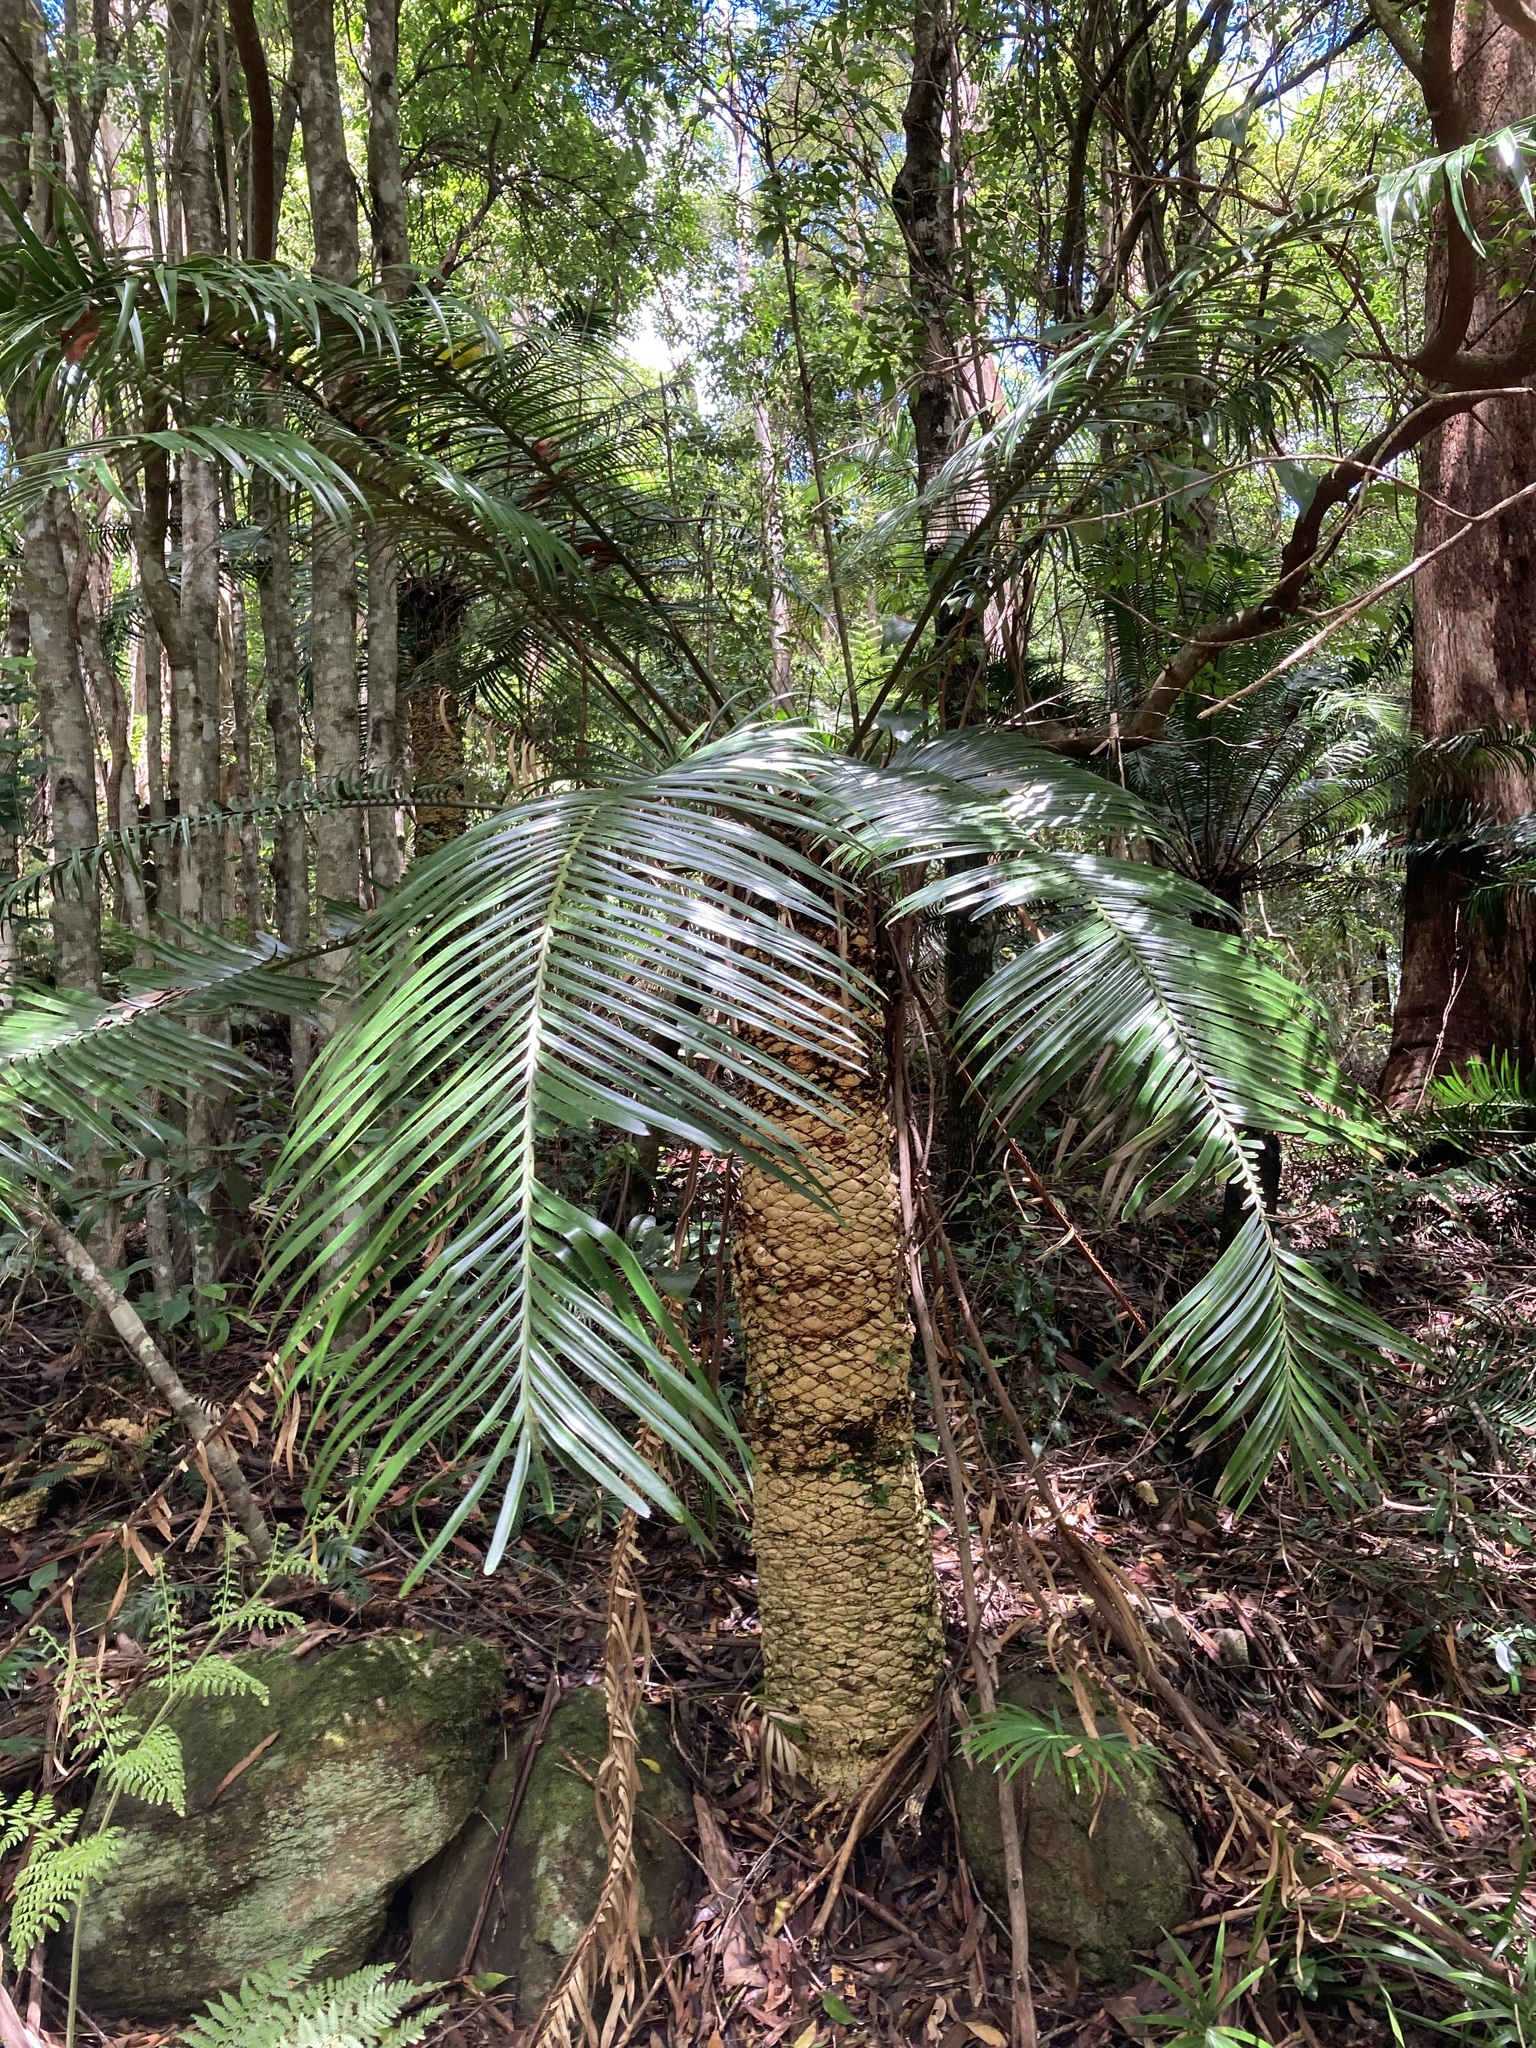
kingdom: Plantae
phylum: Tracheophyta
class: Cycadopsida
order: Cycadales
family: Zamiaceae
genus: Lepidozamia
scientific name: Lepidozamia peroffskyana
